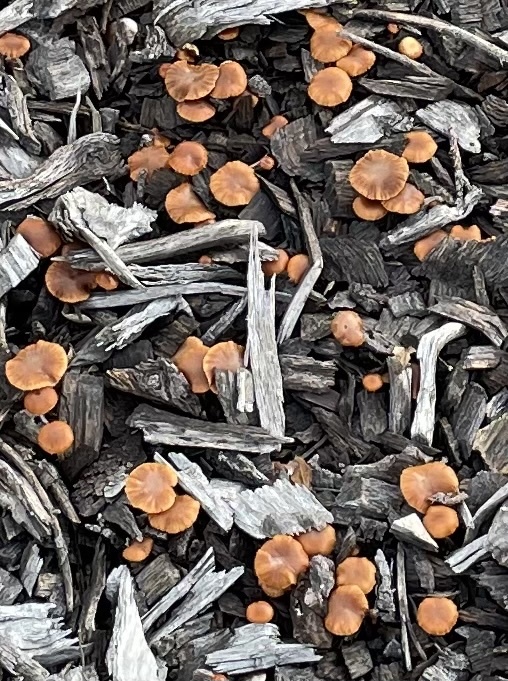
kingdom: Fungi
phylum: Basidiomycota
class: Agaricomycetes
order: Agaricales
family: Tubariaceae
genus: Tubaria
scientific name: Tubaria furfuracea
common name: Scurfy twiglet
